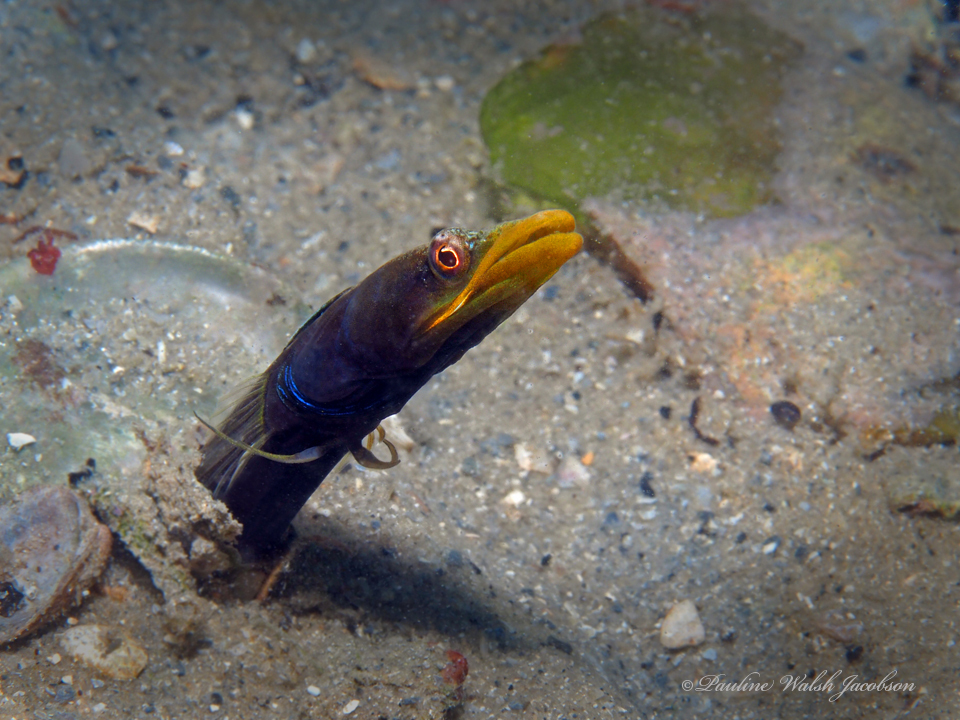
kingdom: Animalia
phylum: Chordata
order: Perciformes
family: Chaenopsidae
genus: Chaenopsis
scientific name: Chaenopsis ocellata
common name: Bluethroat pikeblenny
